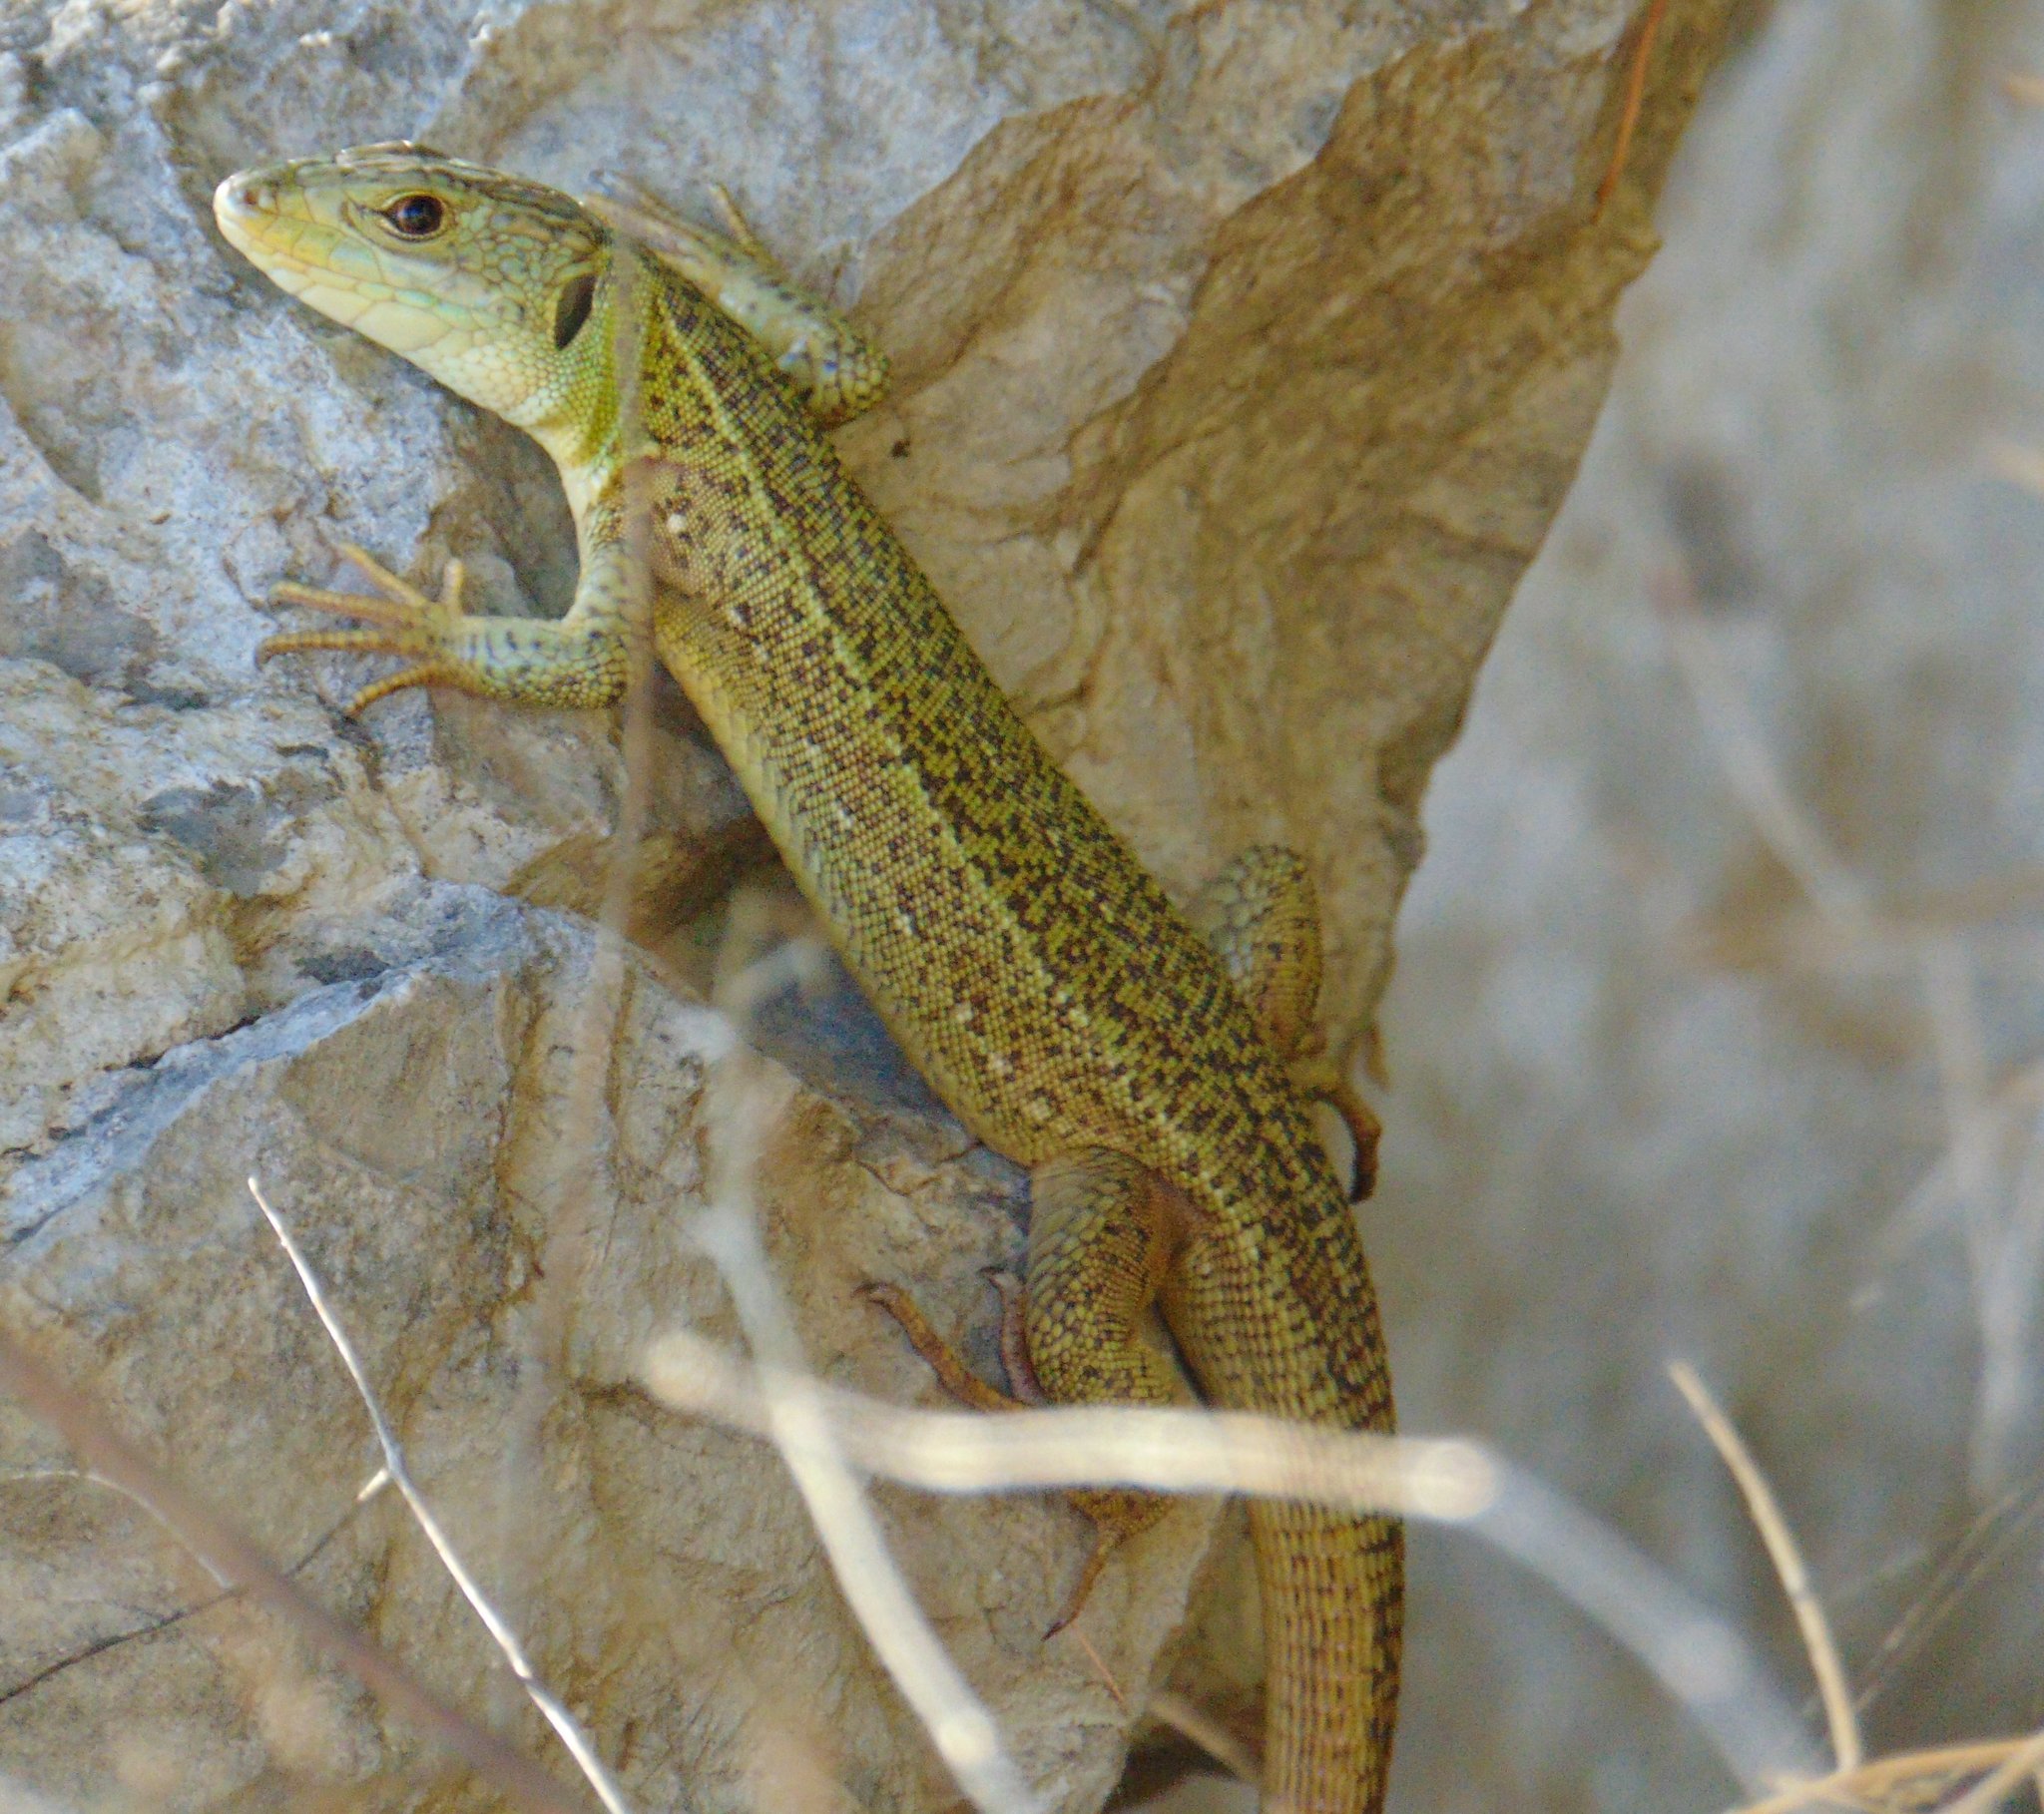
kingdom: Animalia
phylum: Chordata
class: Squamata
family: Lacertidae
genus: Lacerta
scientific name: Lacerta trilineata
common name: Balkan green lizard
